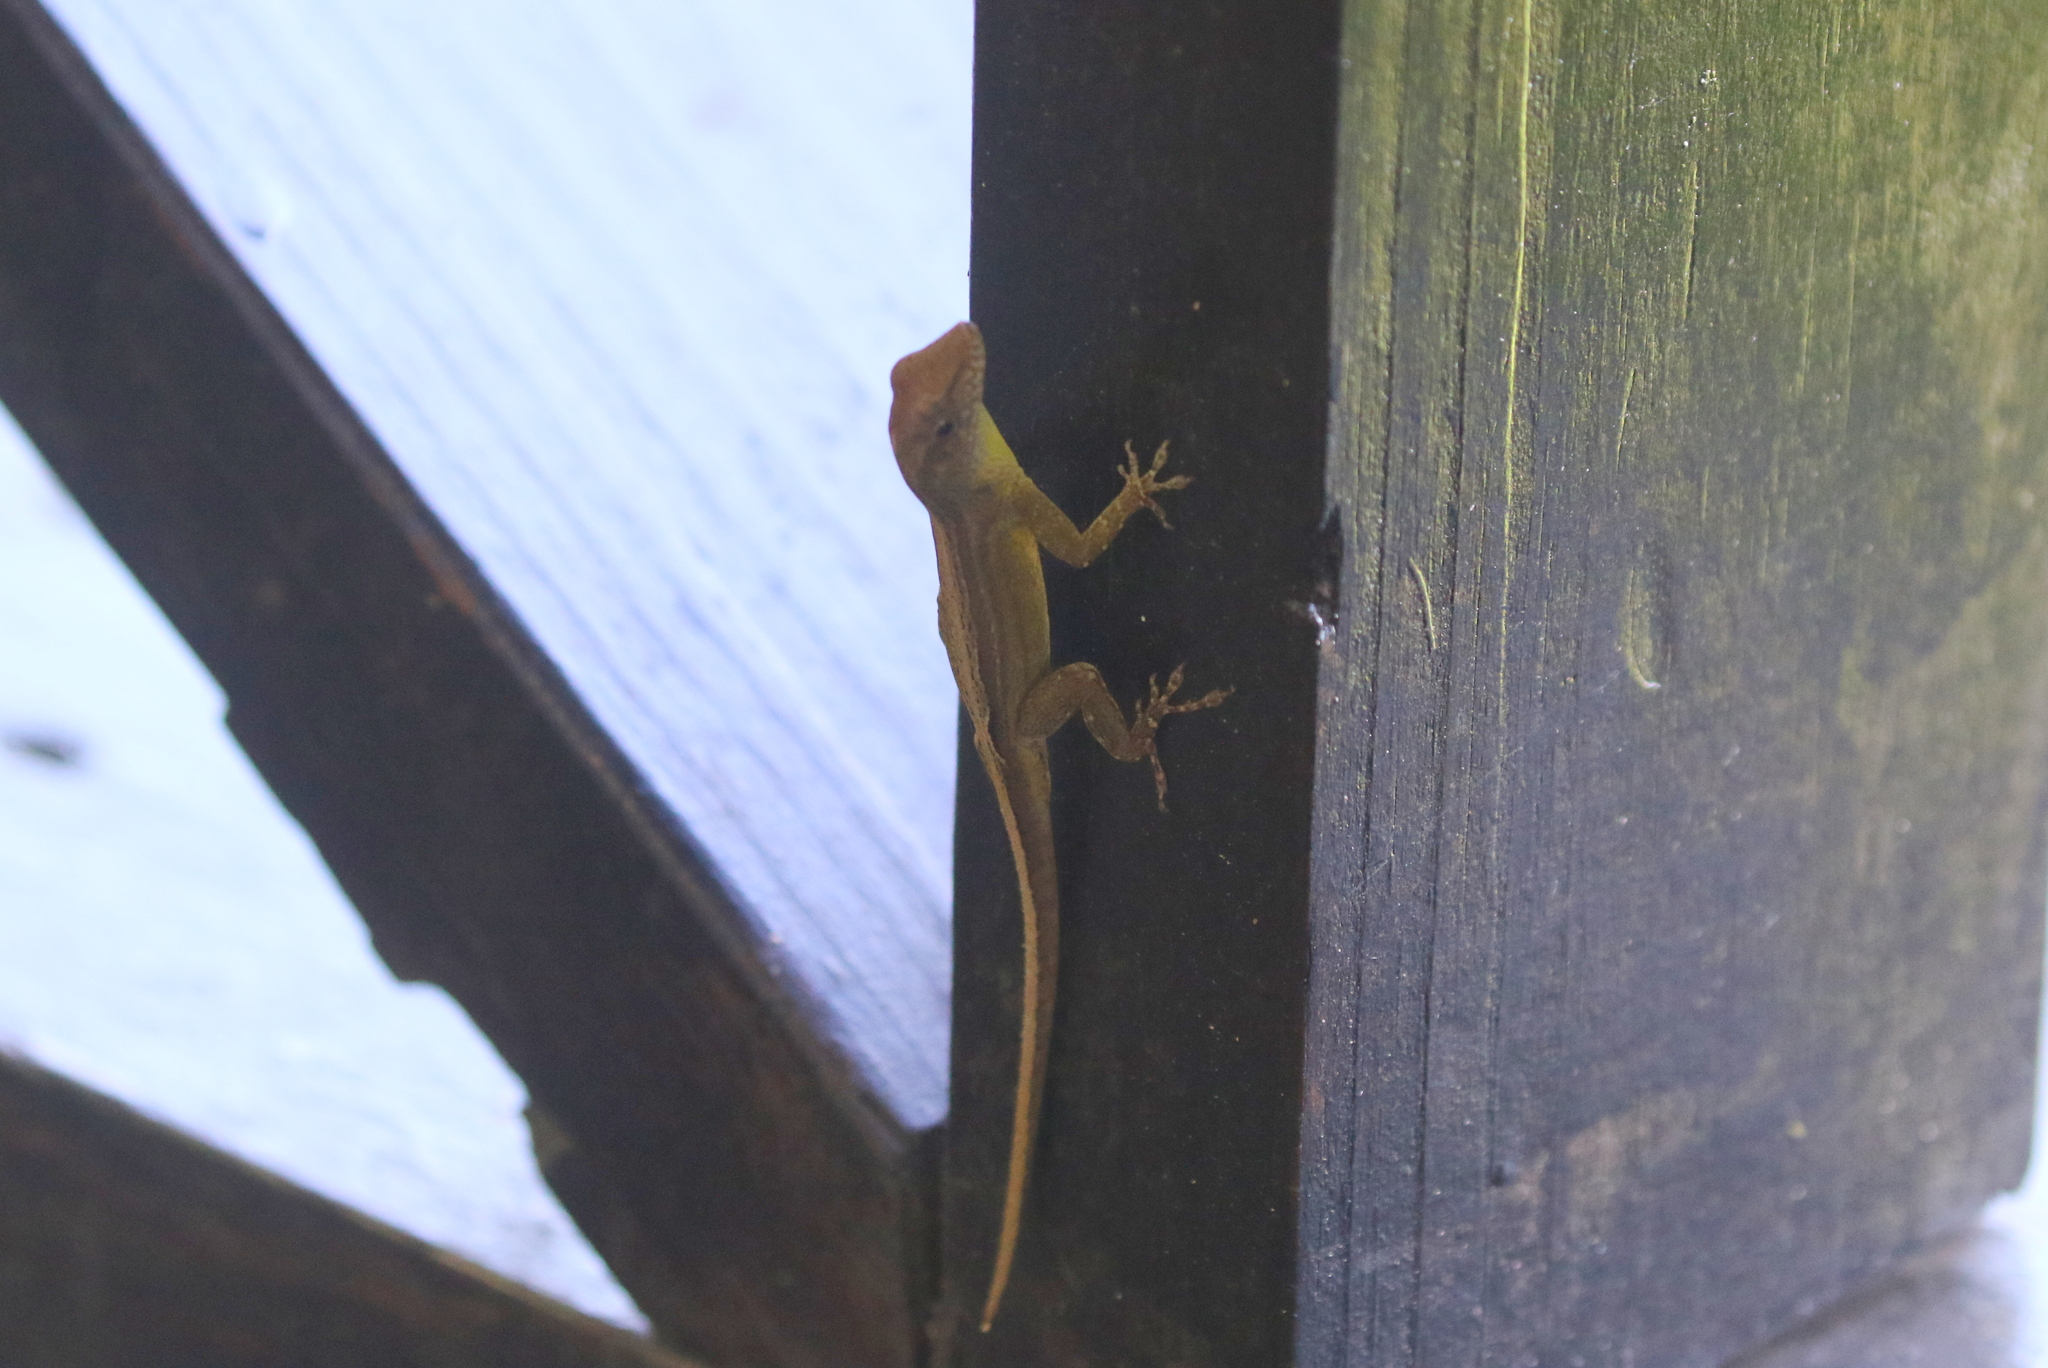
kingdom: Animalia
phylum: Chordata
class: Squamata
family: Dactyloidae
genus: Anolis
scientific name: Anolis lineatopus
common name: Stripefoot anole
